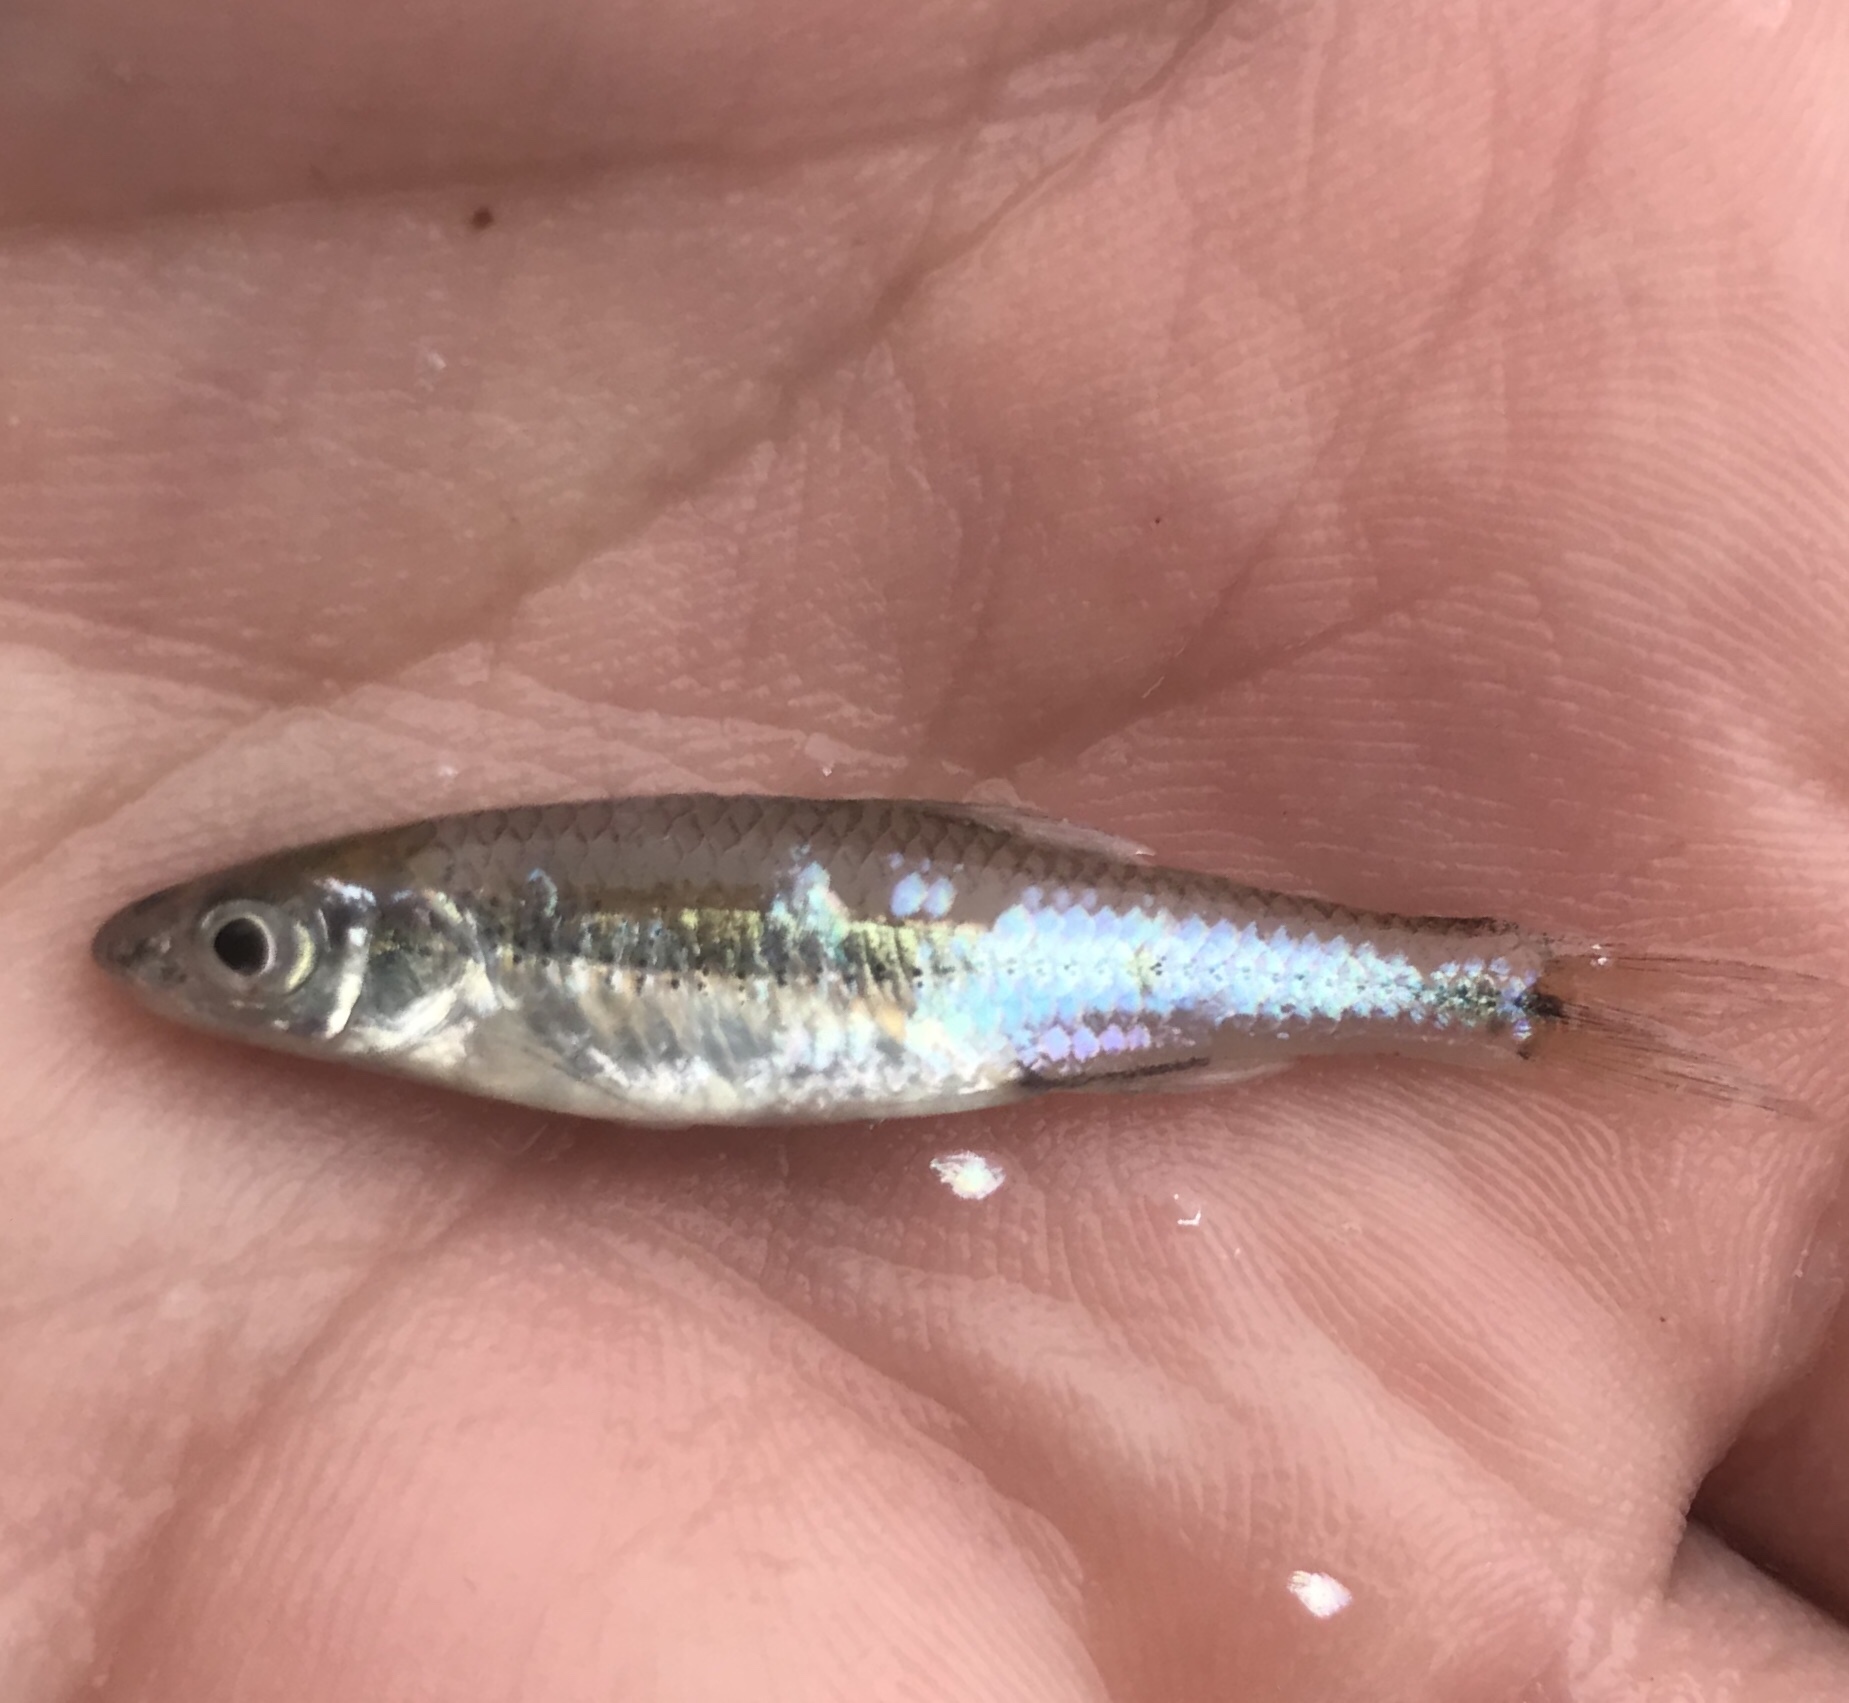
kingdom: Animalia
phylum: Chordata
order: Cypriniformes
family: Cyprinidae
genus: Notropis
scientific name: Notropis
